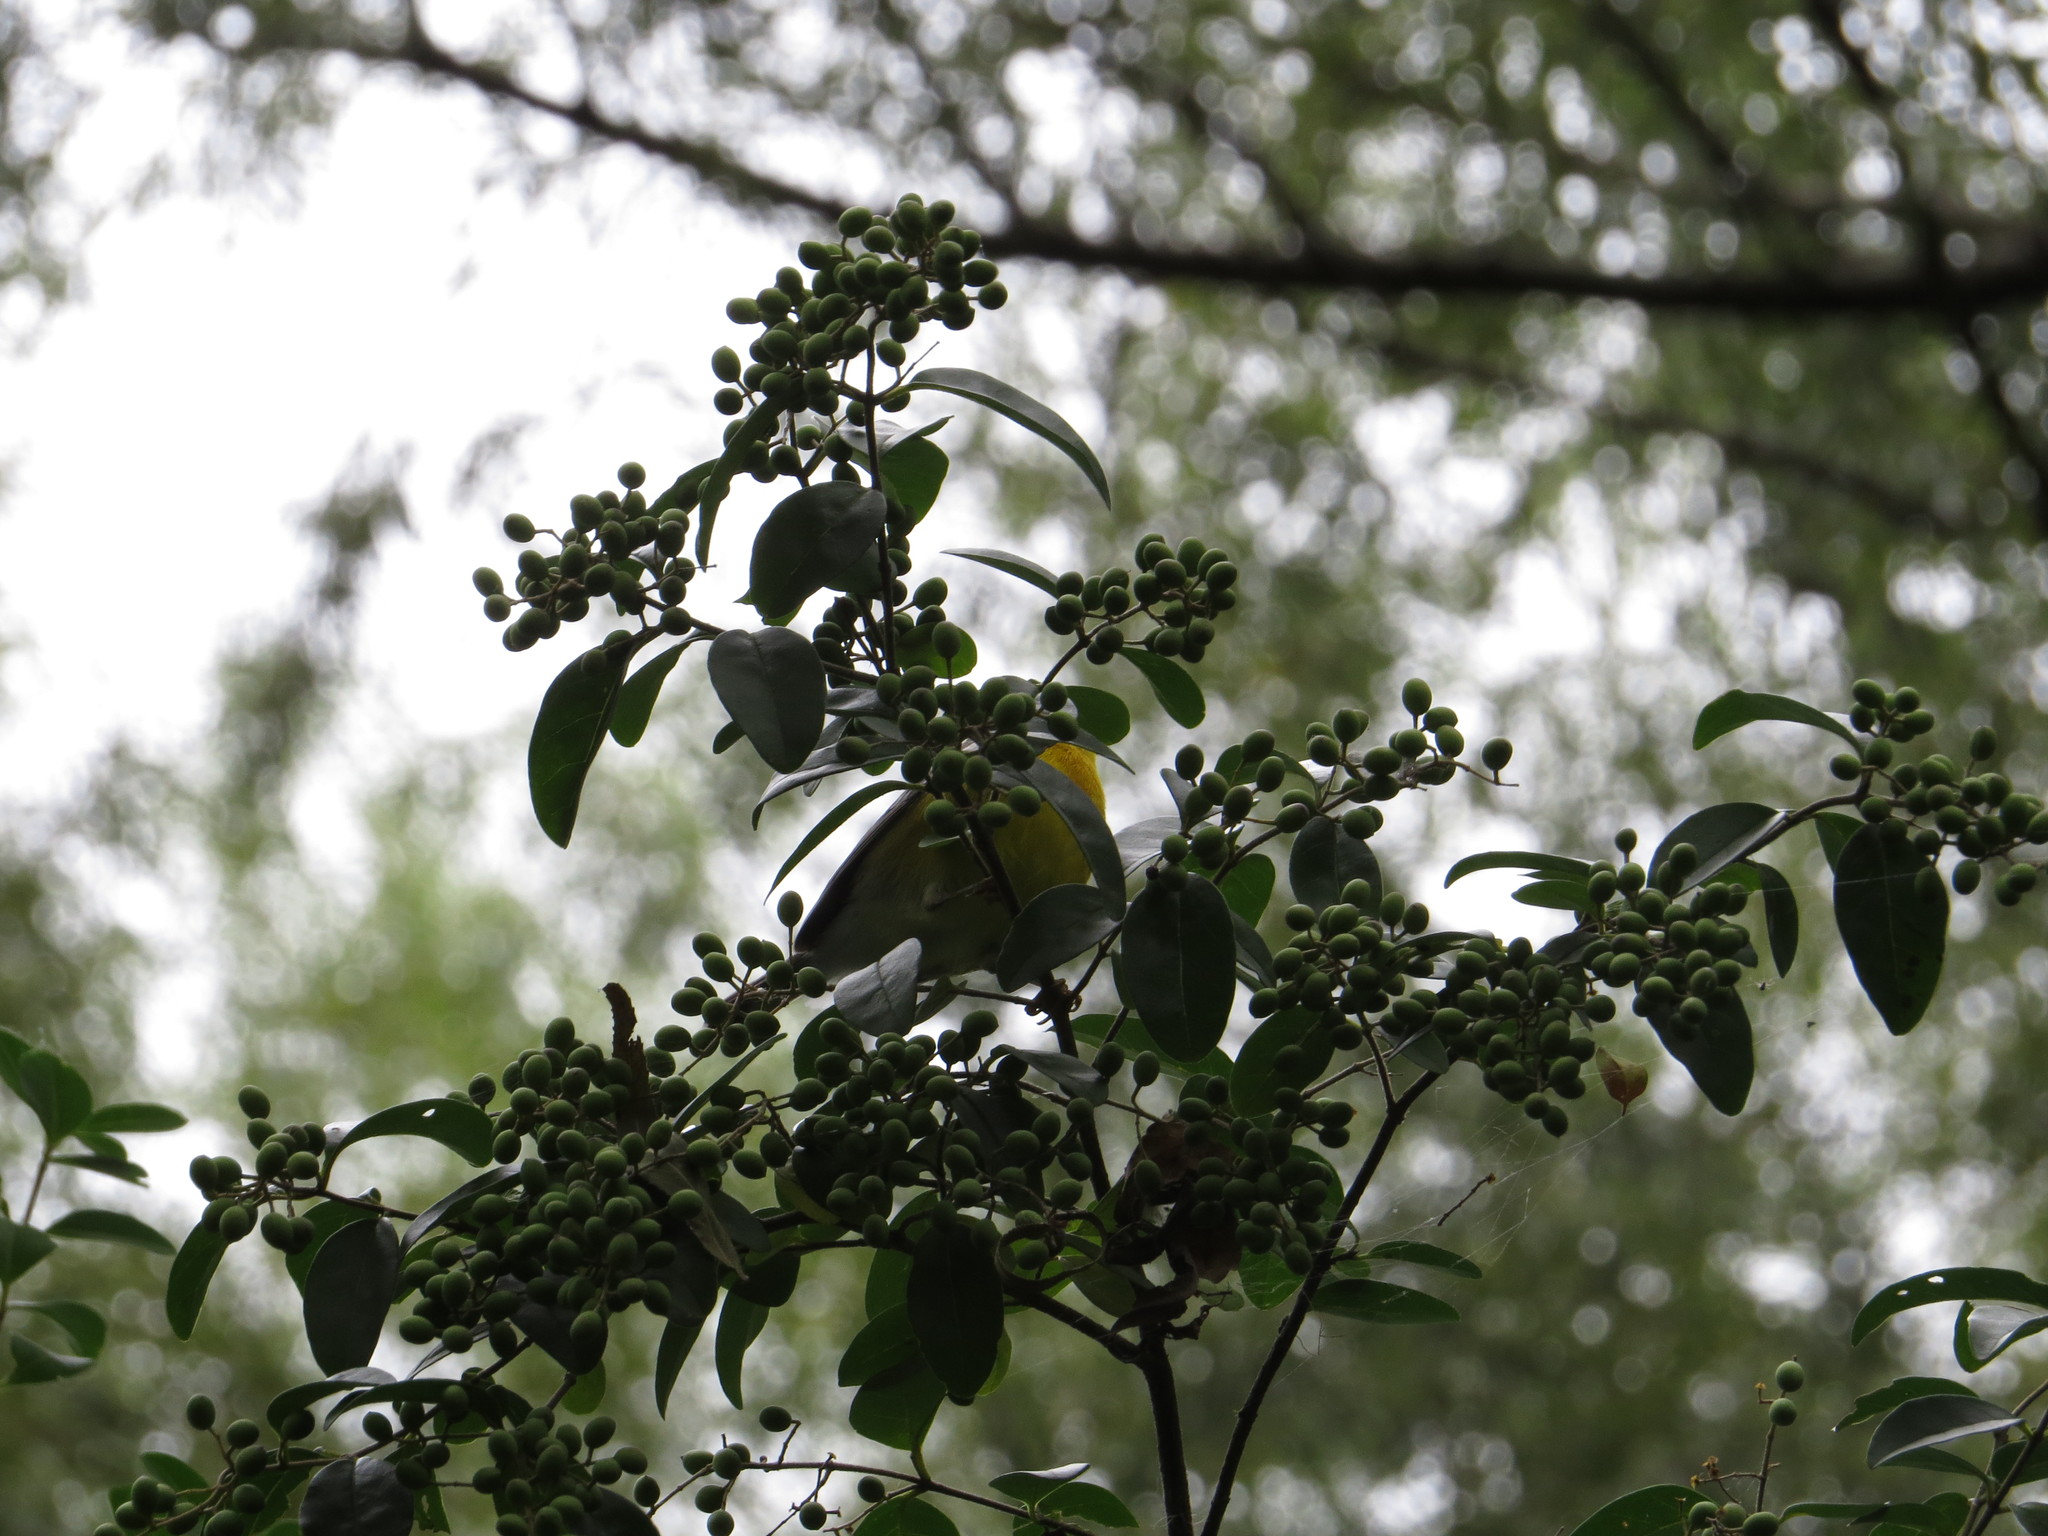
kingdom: Animalia
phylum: Chordata
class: Aves
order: Passeriformes
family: Parulidae
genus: Setophaga
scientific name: Setophaga pitiayumi
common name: Tropical parula
